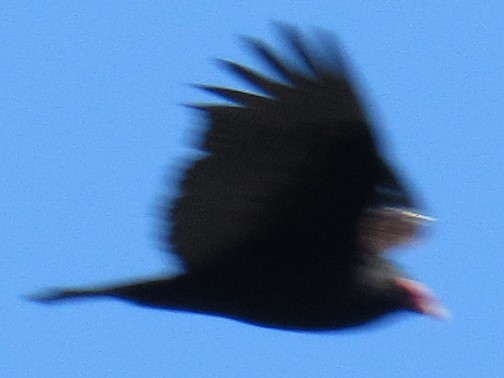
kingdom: Animalia
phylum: Chordata
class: Aves
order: Accipitriformes
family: Cathartidae
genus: Cathartes
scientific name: Cathartes aura
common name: Turkey vulture
